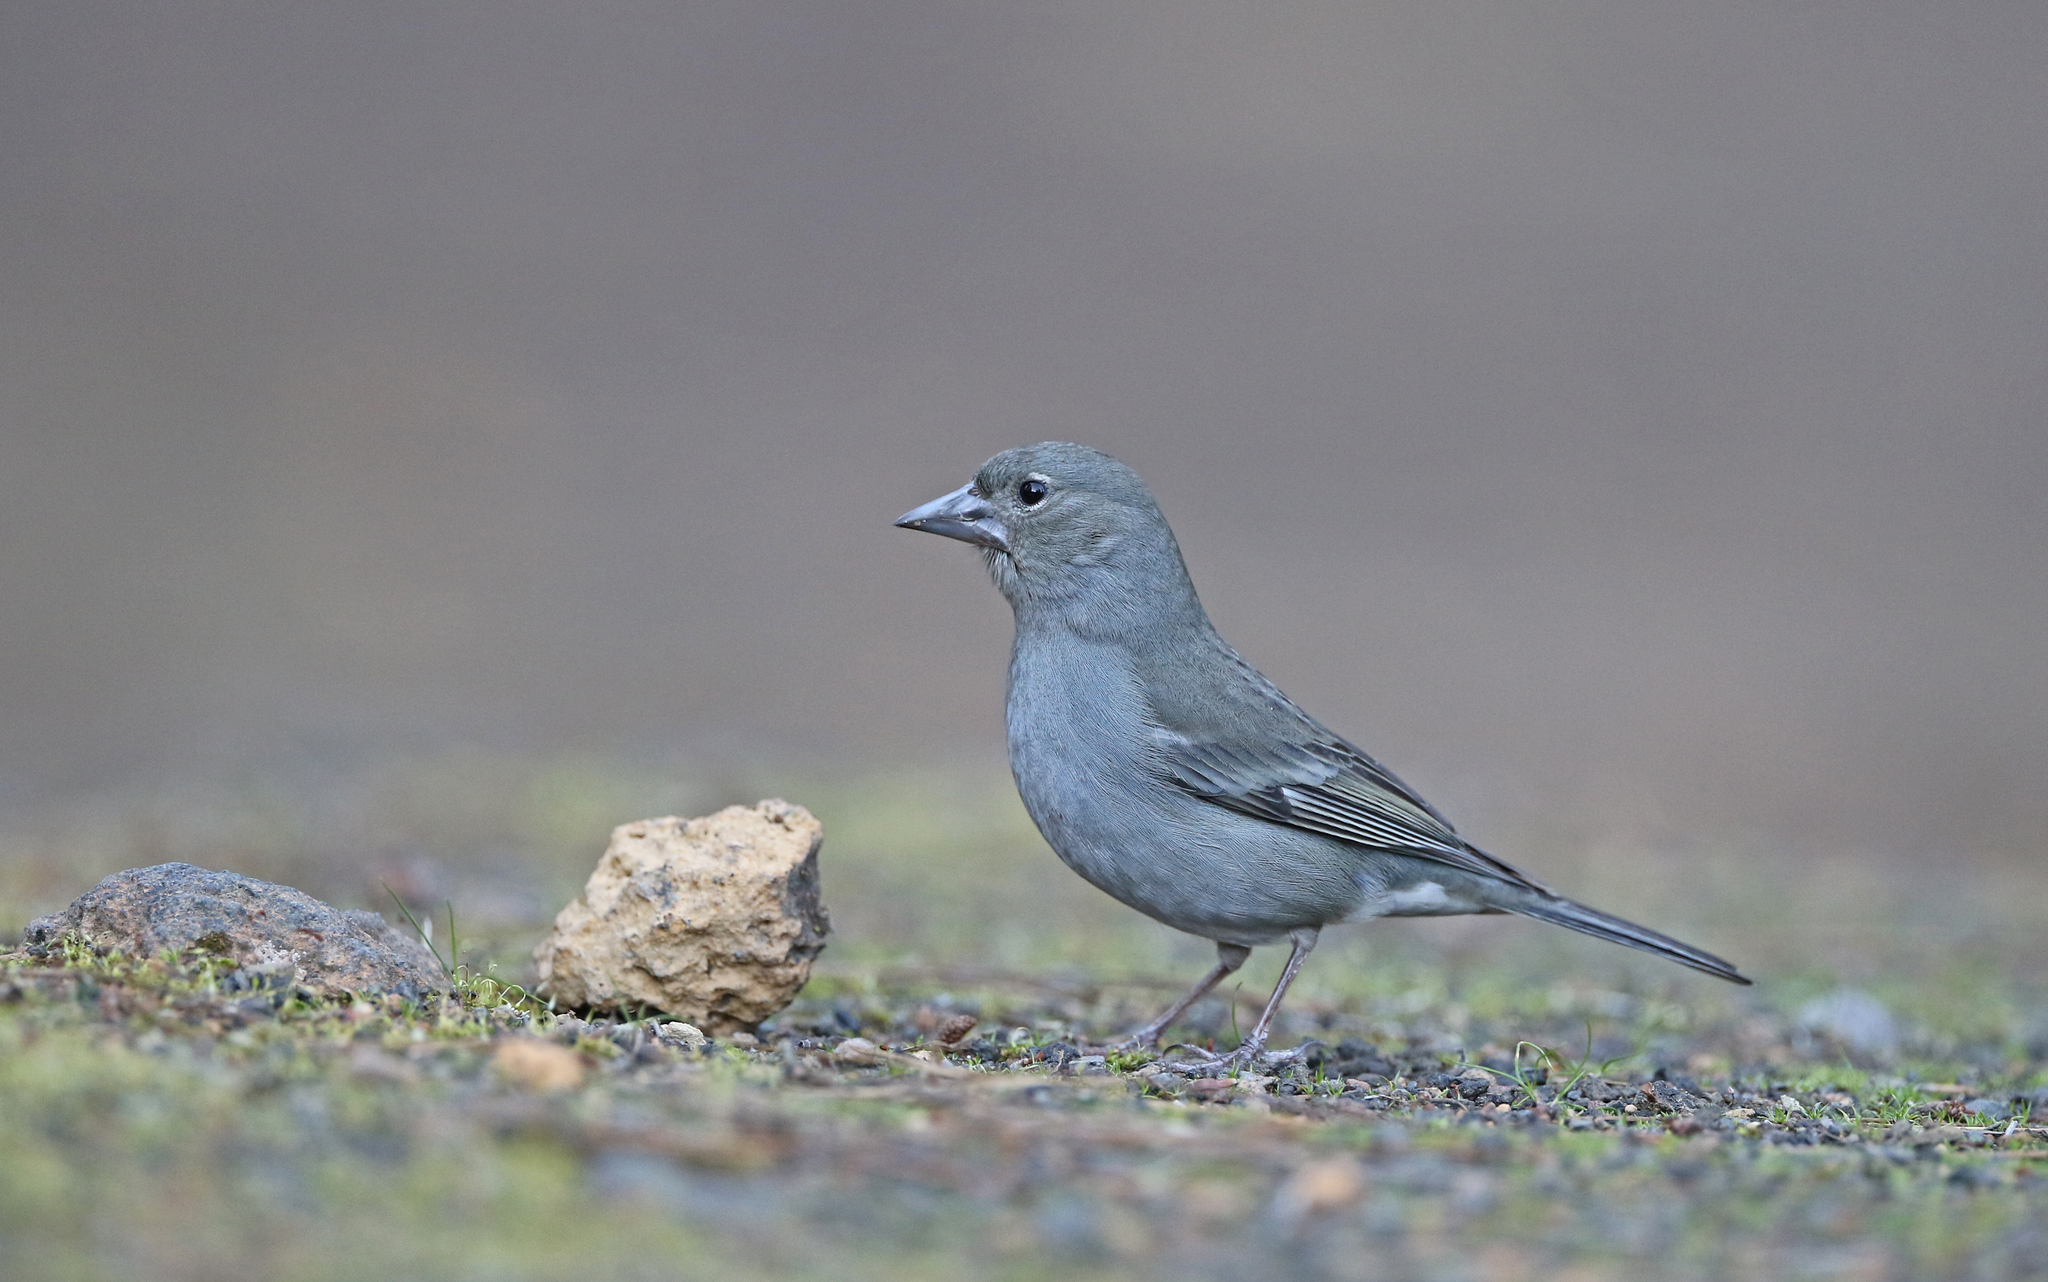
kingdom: Animalia
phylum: Chordata
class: Aves
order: Passeriformes
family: Fringillidae
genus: Fringilla
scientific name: Fringilla teydea
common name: Blue chaffinch
